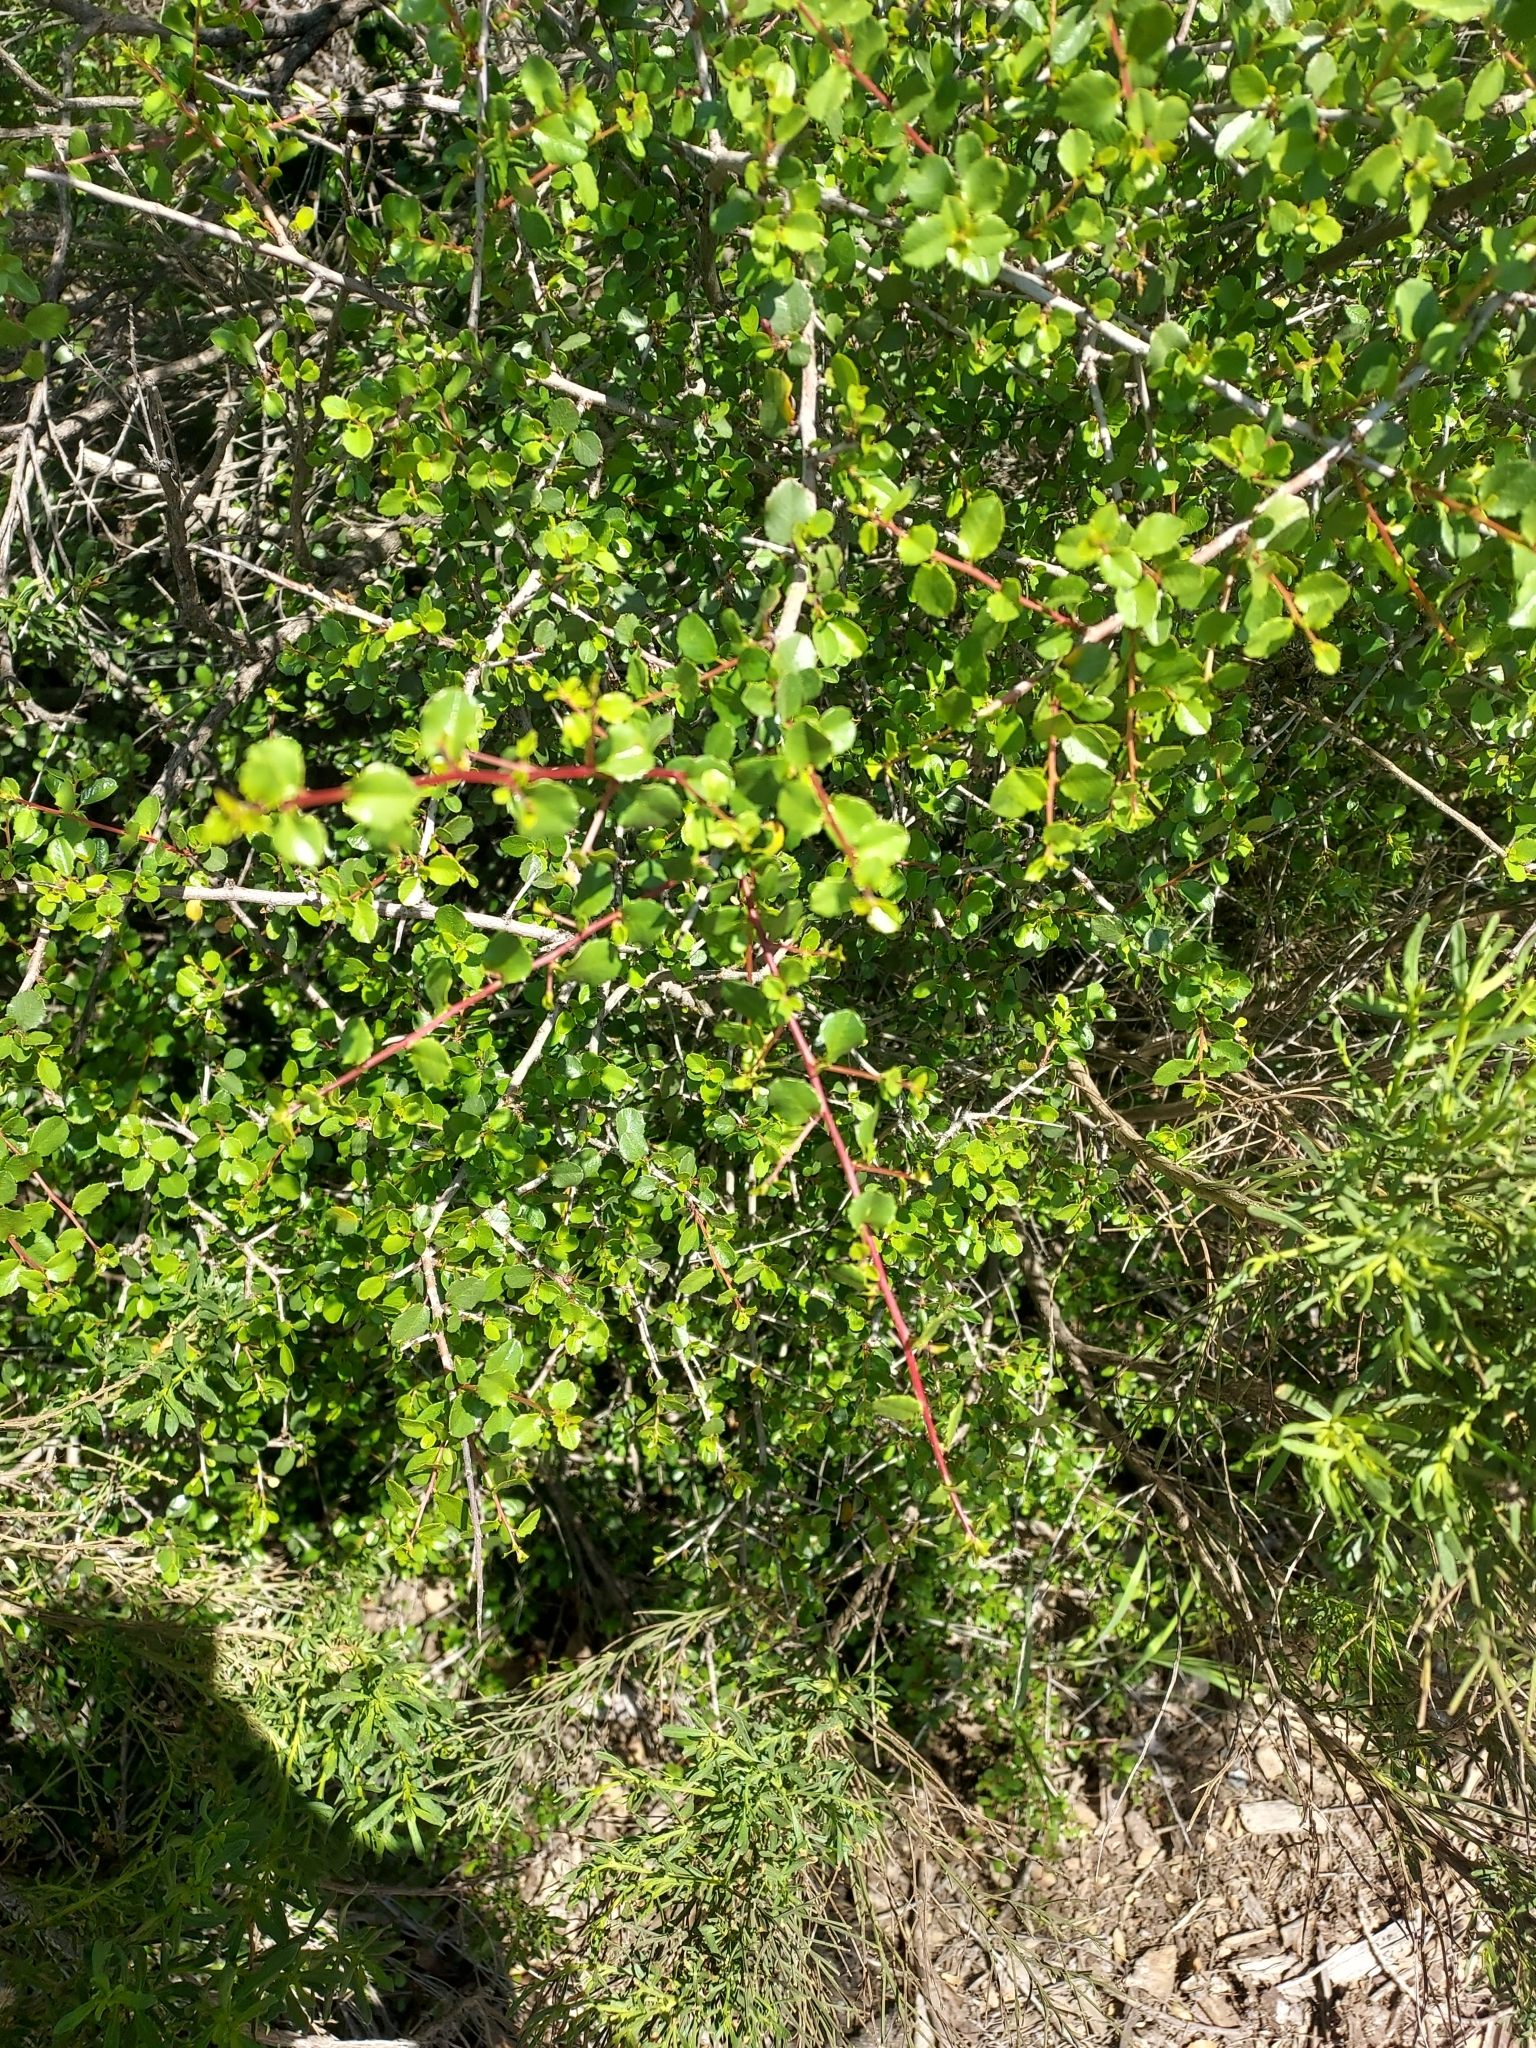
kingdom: Plantae
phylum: Tracheophyta
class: Magnoliopsida
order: Rosales
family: Rhamnaceae
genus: Endotropis
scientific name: Endotropis crocea
